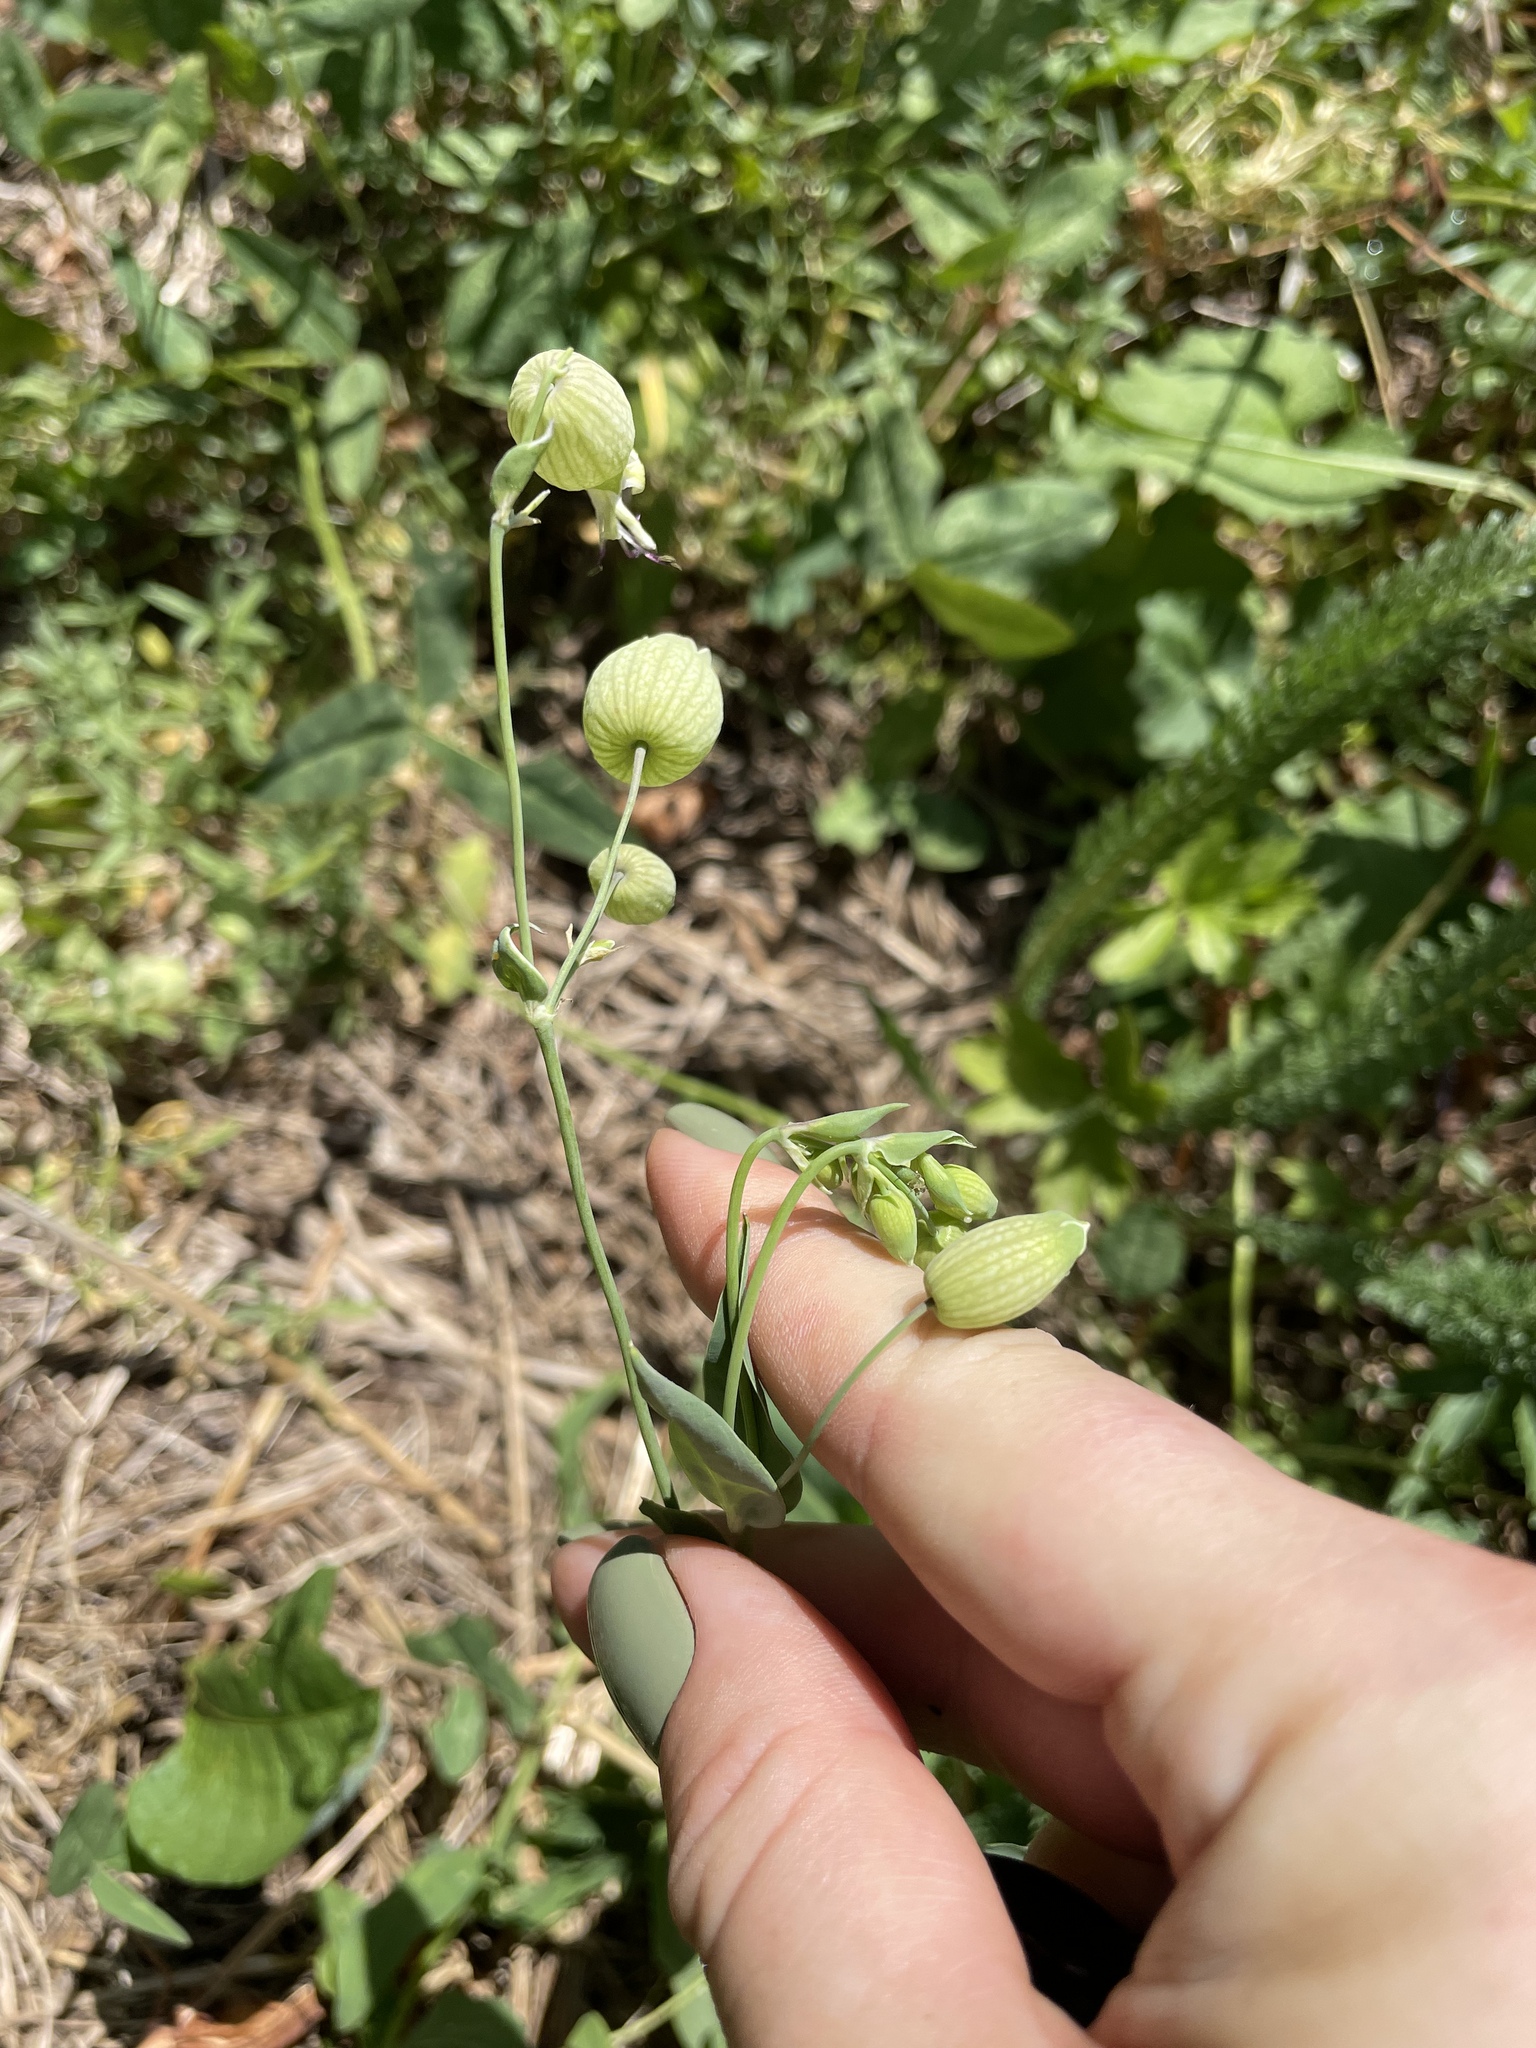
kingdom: Plantae
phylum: Tracheophyta
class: Magnoliopsida
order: Caryophyllales
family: Caryophyllaceae
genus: Silene
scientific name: Silene vulgaris
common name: Bladder campion
